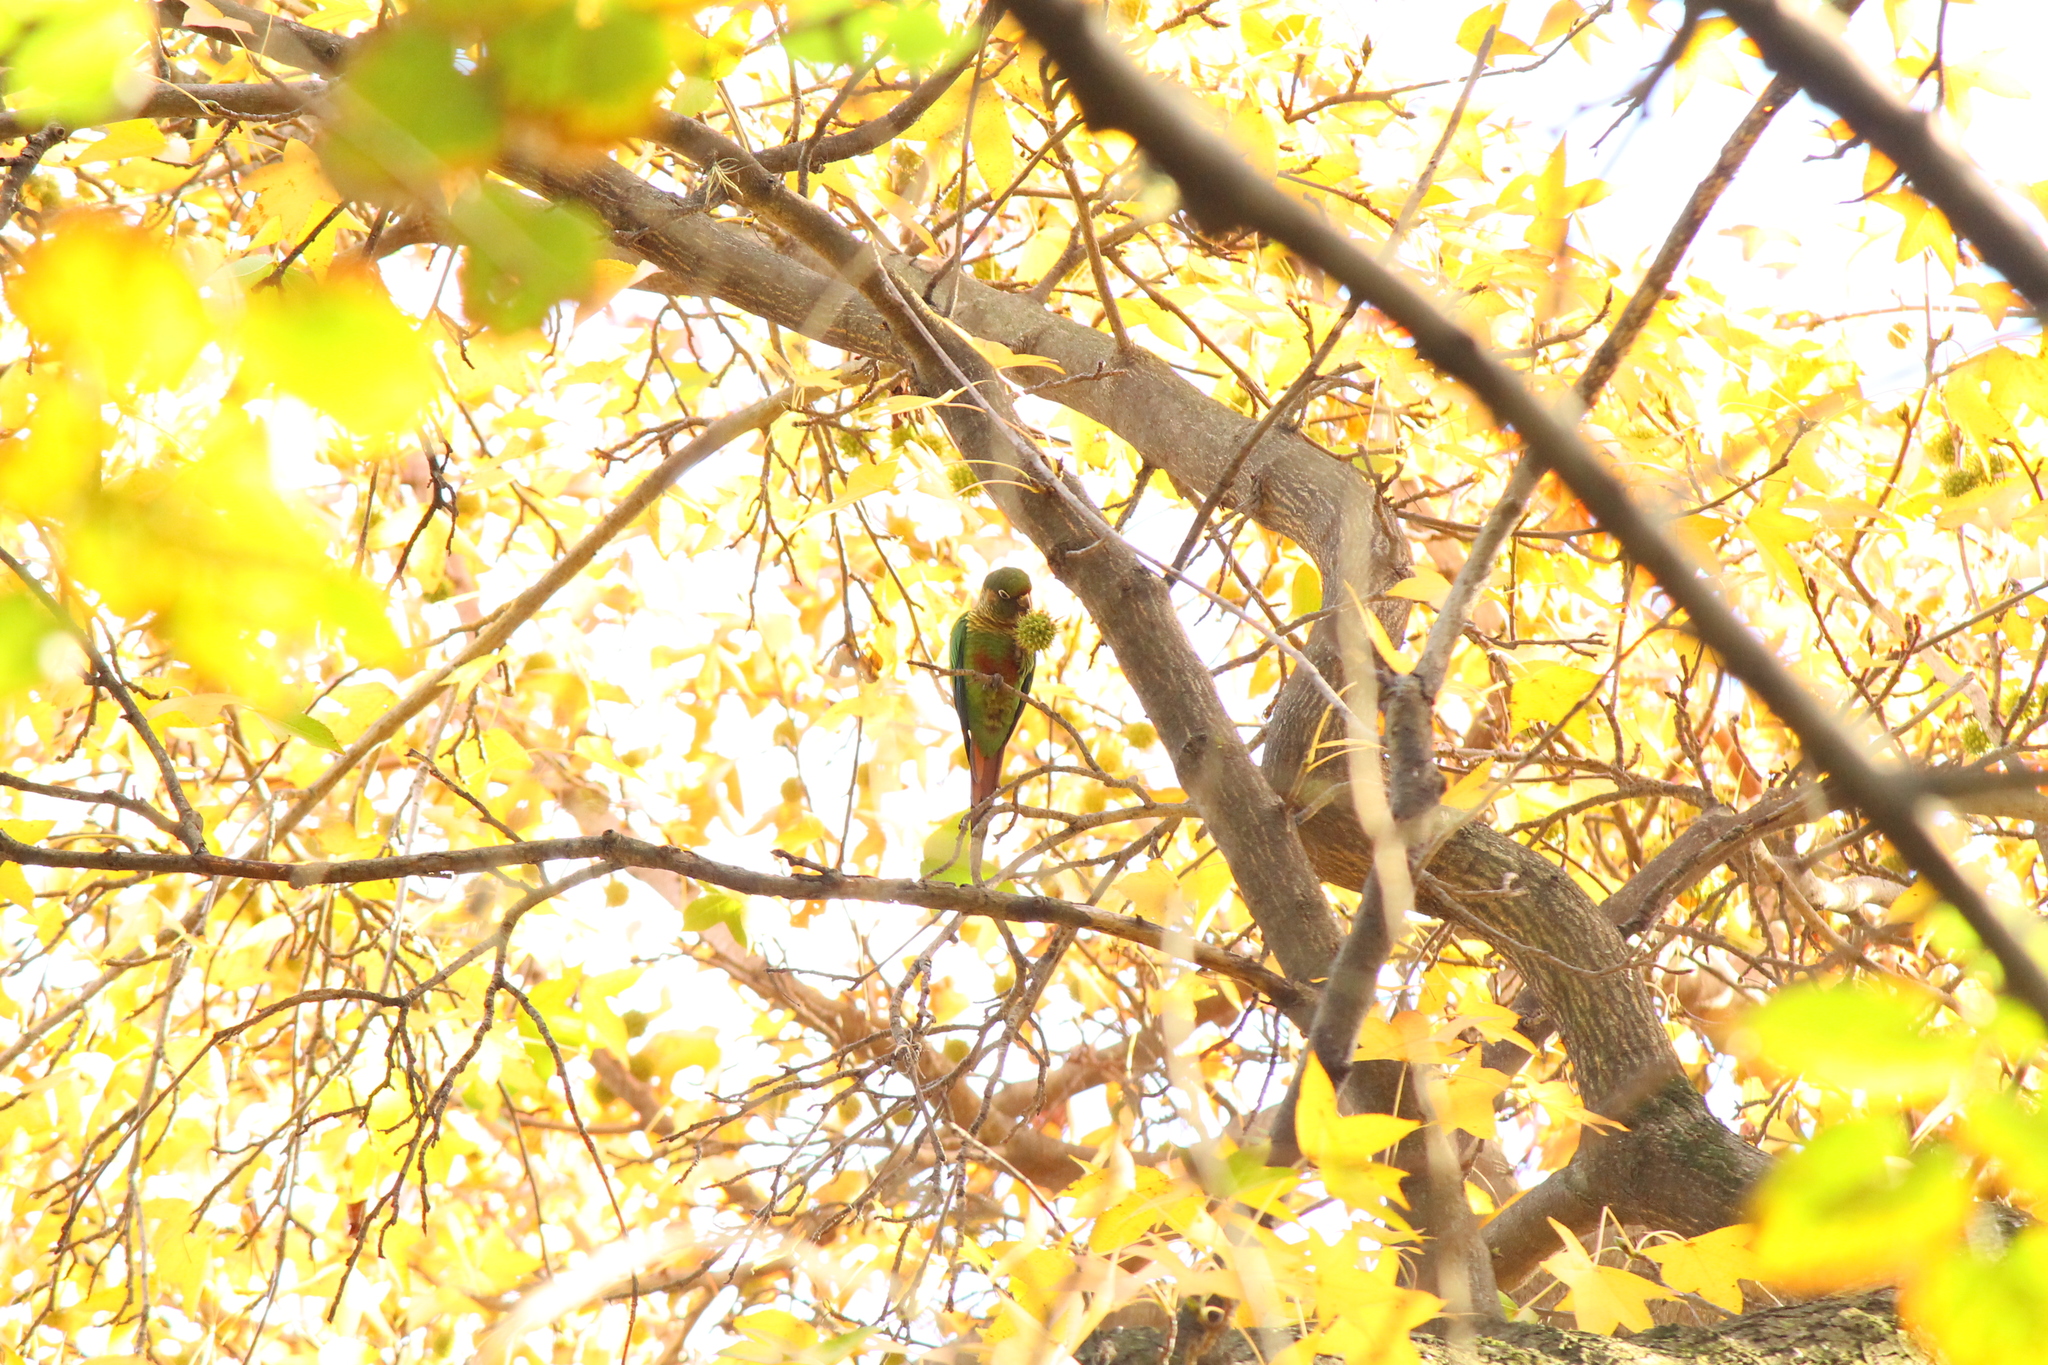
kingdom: Animalia
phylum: Chordata
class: Aves
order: Psittaciformes
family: Psittacidae
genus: Pyrrhura
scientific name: Pyrrhura frontalis
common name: Maroon-bellied parakeet
